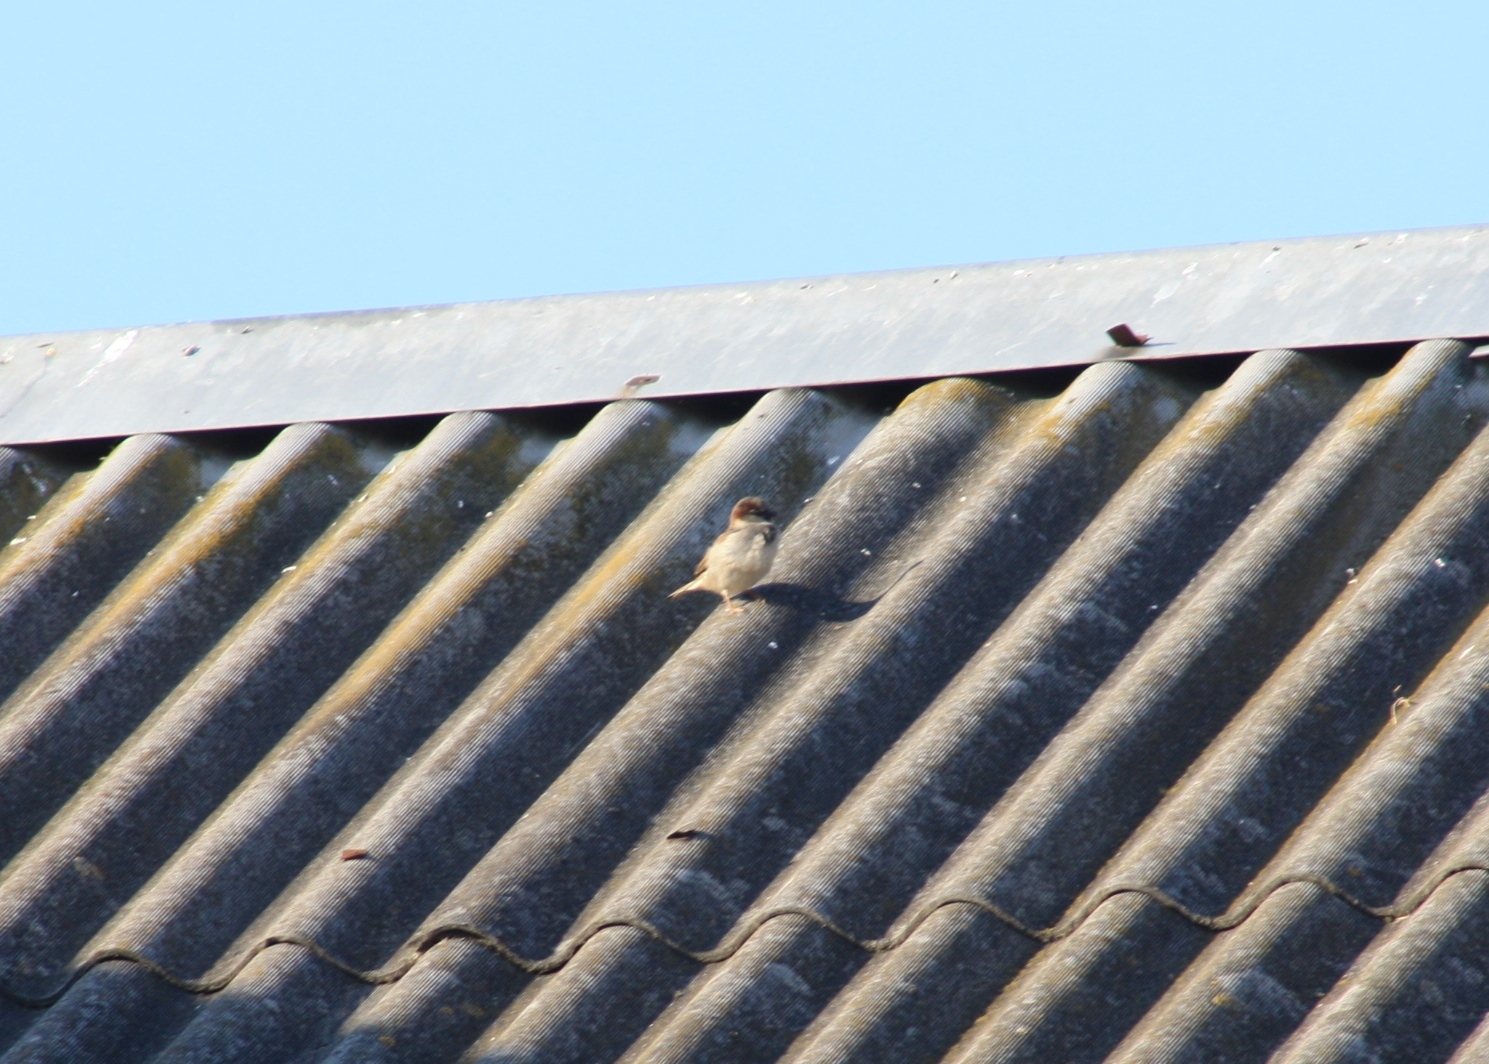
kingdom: Animalia
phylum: Chordata
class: Aves
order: Passeriformes
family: Passeridae
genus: Passer
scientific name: Passer domesticus
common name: House sparrow
